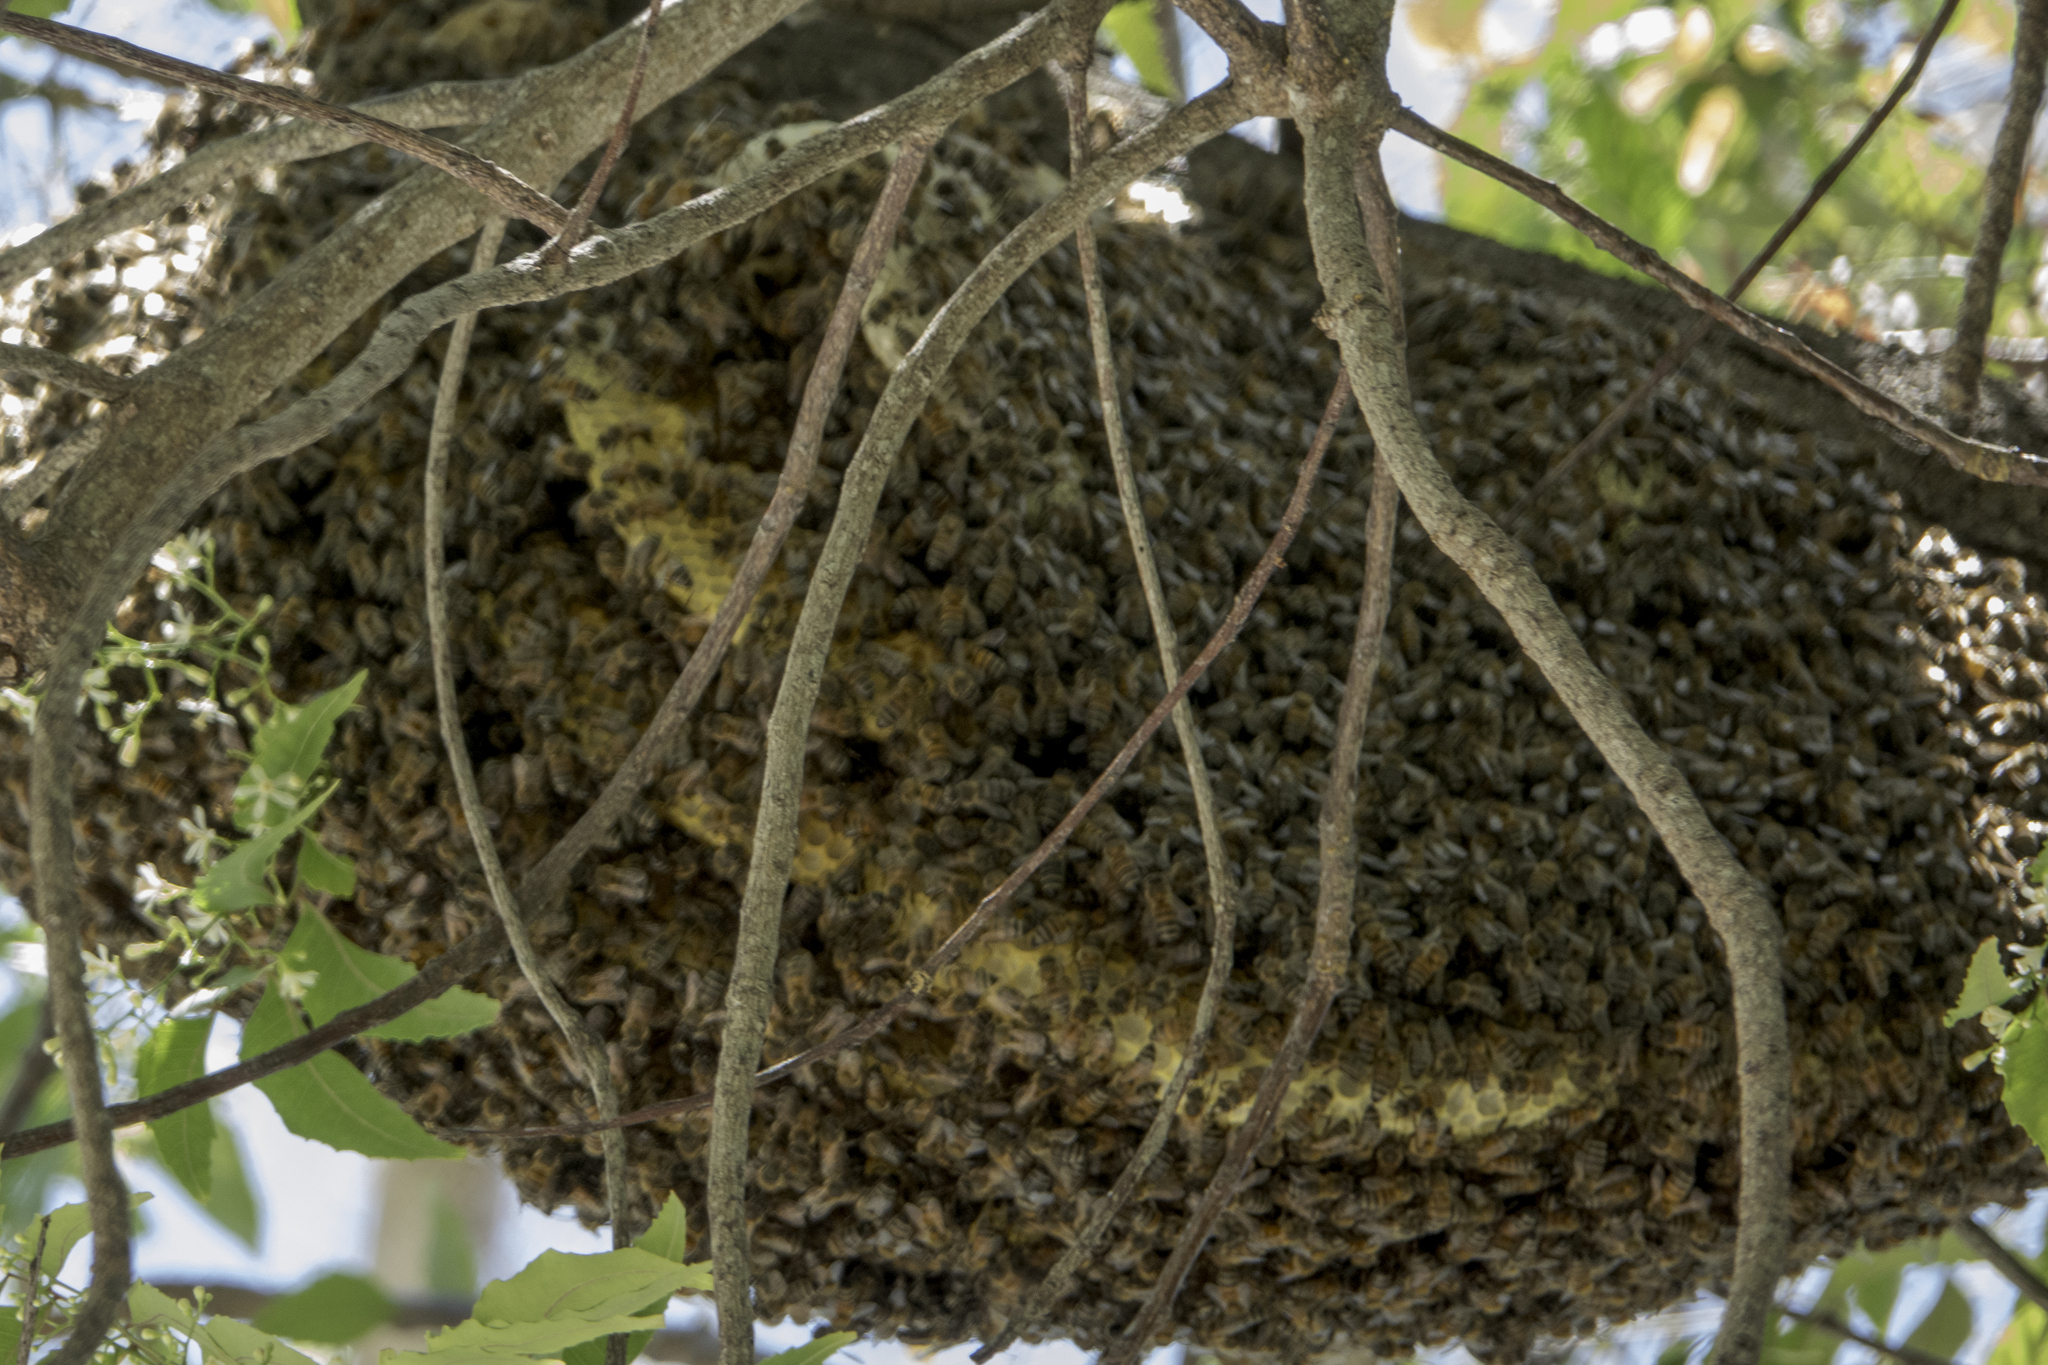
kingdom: Animalia
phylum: Arthropoda
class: Insecta
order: Hymenoptera
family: Apidae
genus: Apis
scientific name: Apis mellifera
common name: Honey bee
